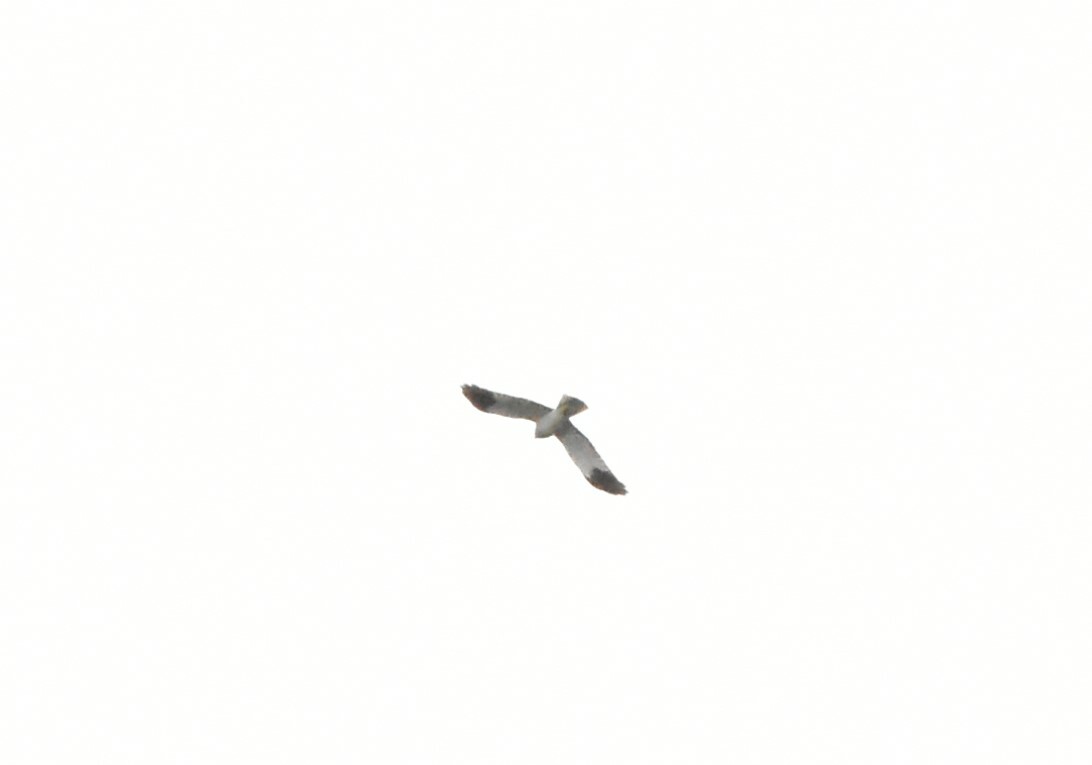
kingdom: Animalia
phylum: Chordata
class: Aves
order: Accipitriformes
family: Accipitridae
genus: Circus
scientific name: Circus cyaneus
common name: Hen harrier
